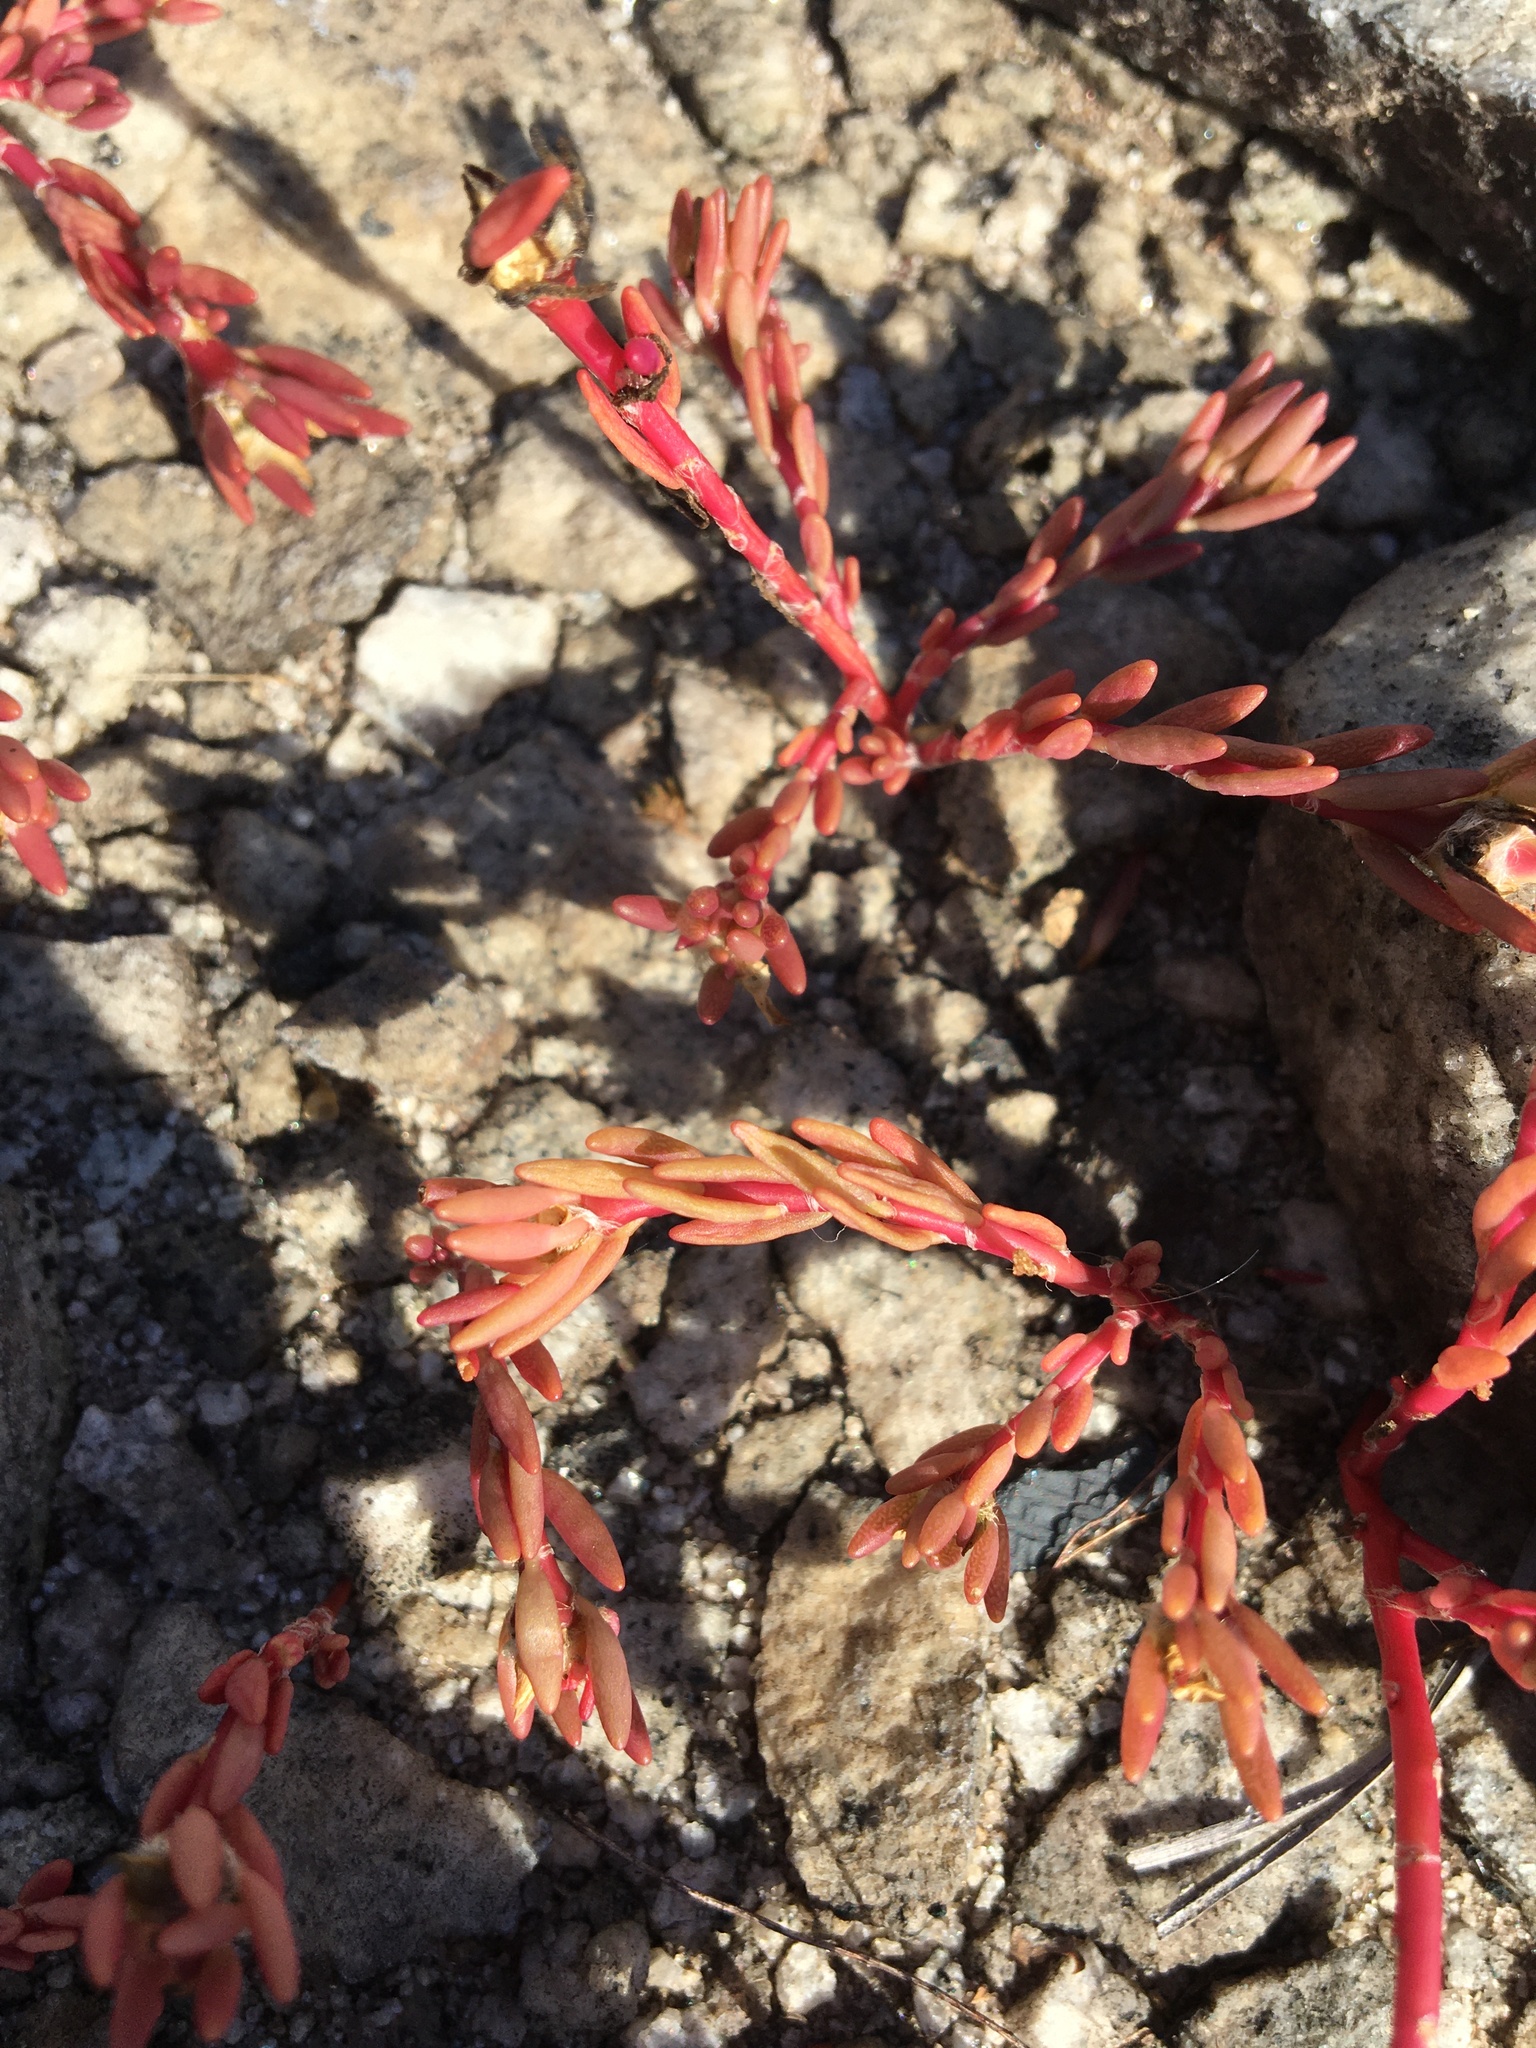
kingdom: Plantae
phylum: Tracheophyta
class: Magnoliopsida
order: Caryophyllales
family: Portulacaceae
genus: Portulaca
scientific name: Portulaca pilosa
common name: Kiss me quick
